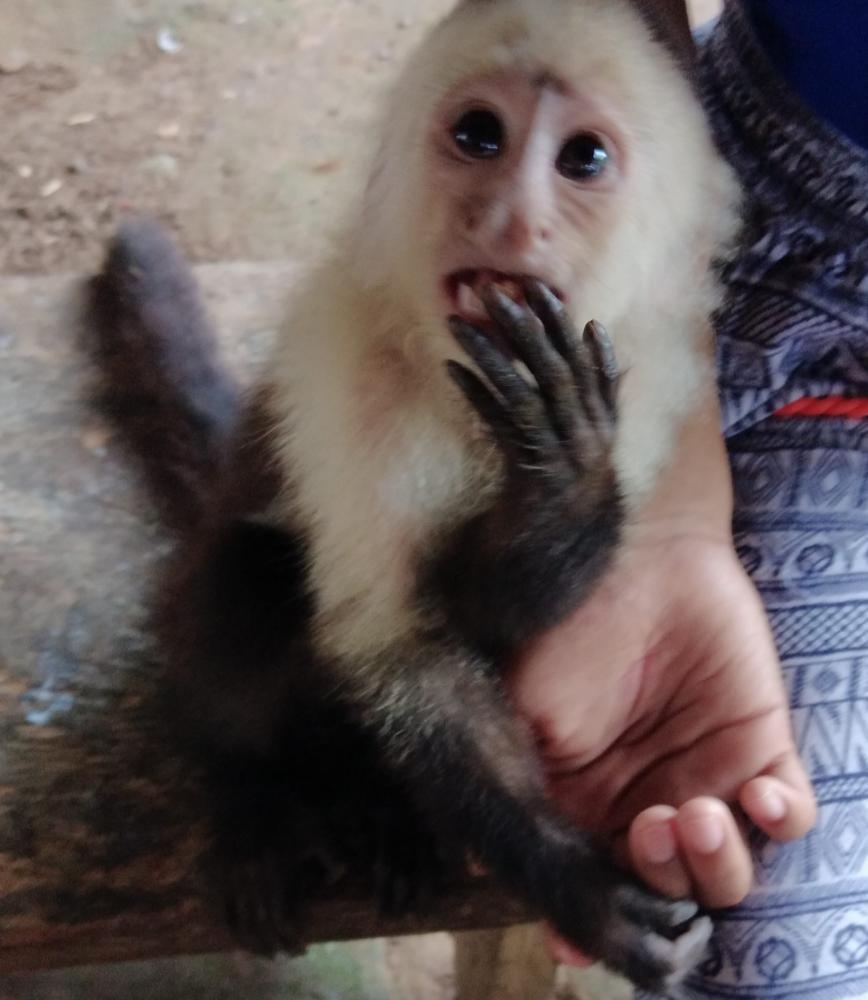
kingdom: Animalia
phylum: Chordata
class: Mammalia
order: Primates
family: Cebidae
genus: Cebus
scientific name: Cebus imitator
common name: Panamanian white-faced capuchin
